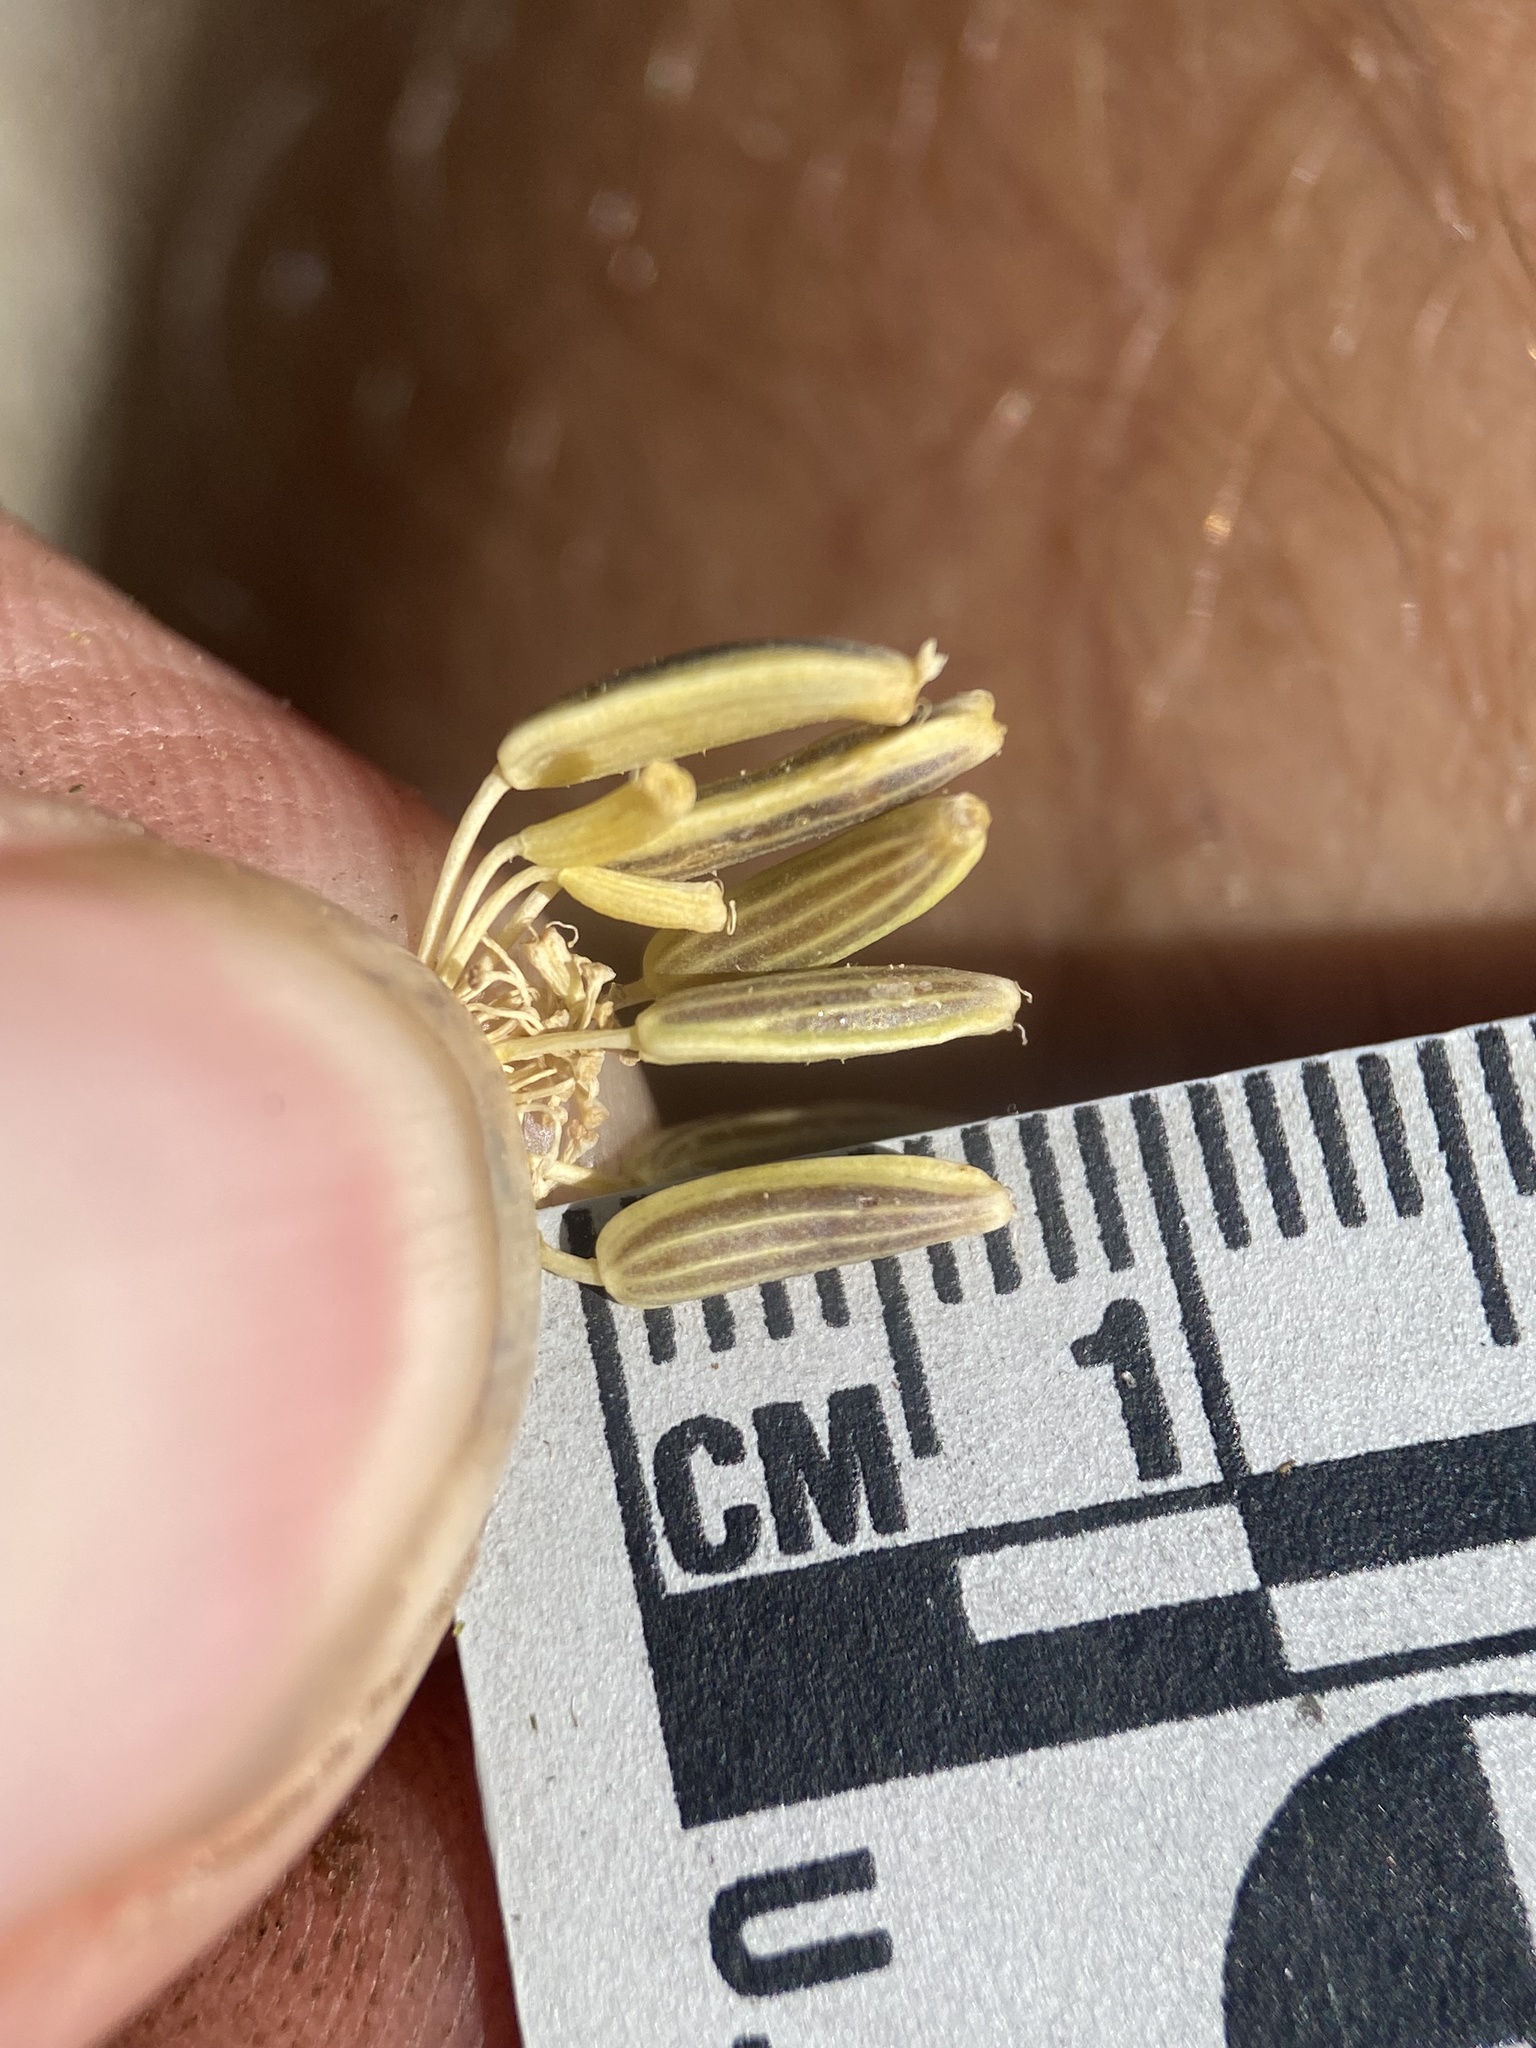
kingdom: Plantae
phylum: Tracheophyta
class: Magnoliopsida
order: Apiales
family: Apiaceae
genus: Lomatium
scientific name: Lomatium ambiguum
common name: Lacy lomatium
